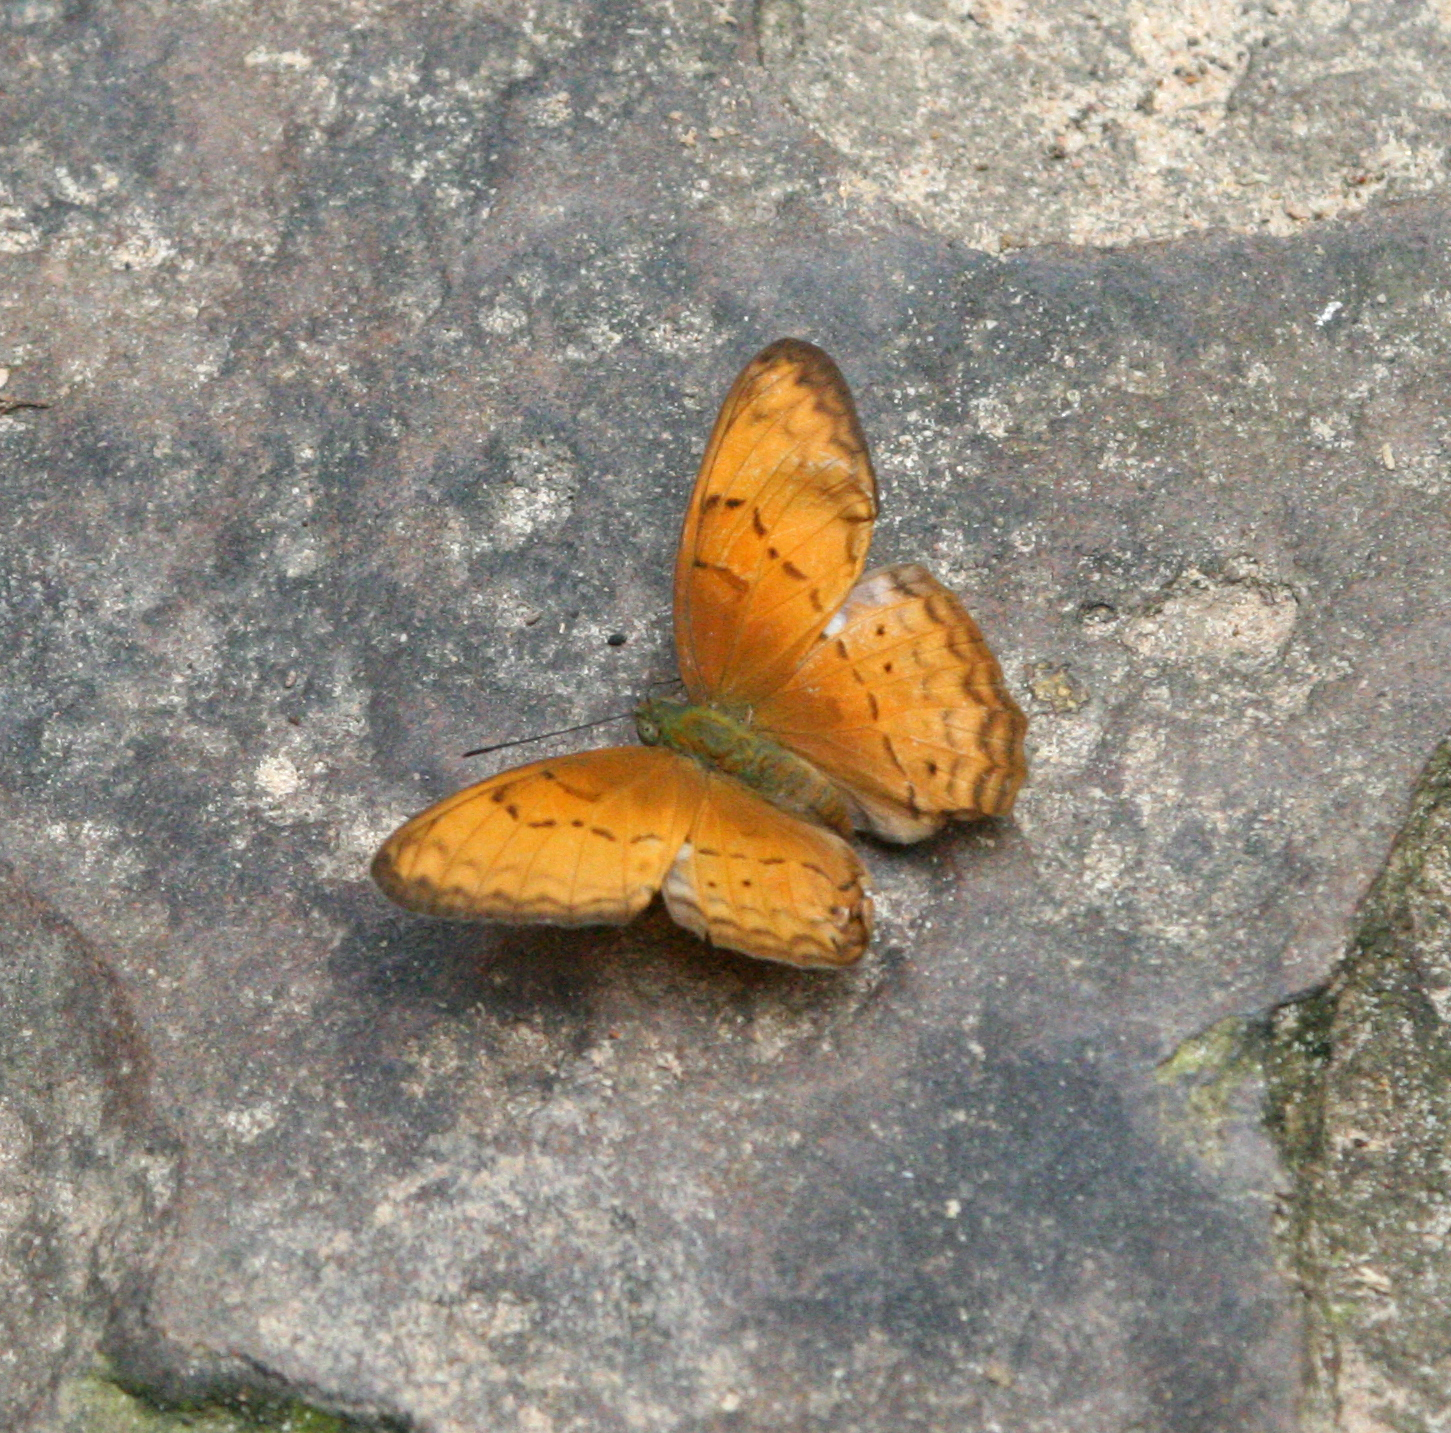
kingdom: Animalia
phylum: Arthropoda
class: Insecta
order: Lepidoptera
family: Nymphalidae
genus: Cirrochroa
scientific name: Cirrochroa surya
